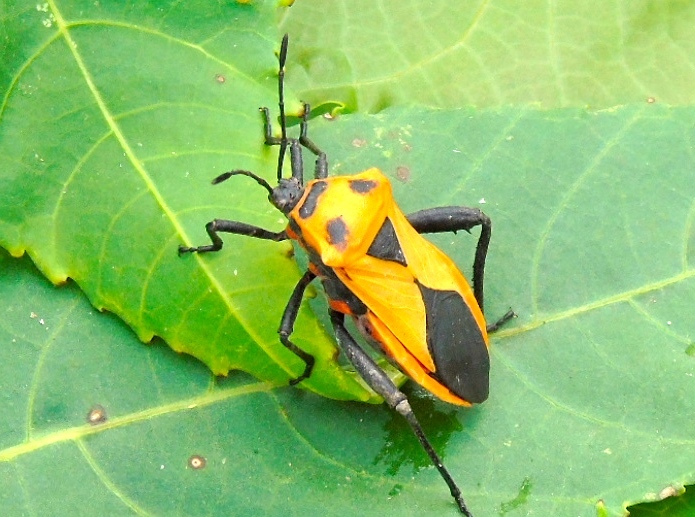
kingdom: Animalia
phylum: Arthropoda
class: Insecta
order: Hemiptera
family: Coreidae
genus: Sagotylus
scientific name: Sagotylus confluens
